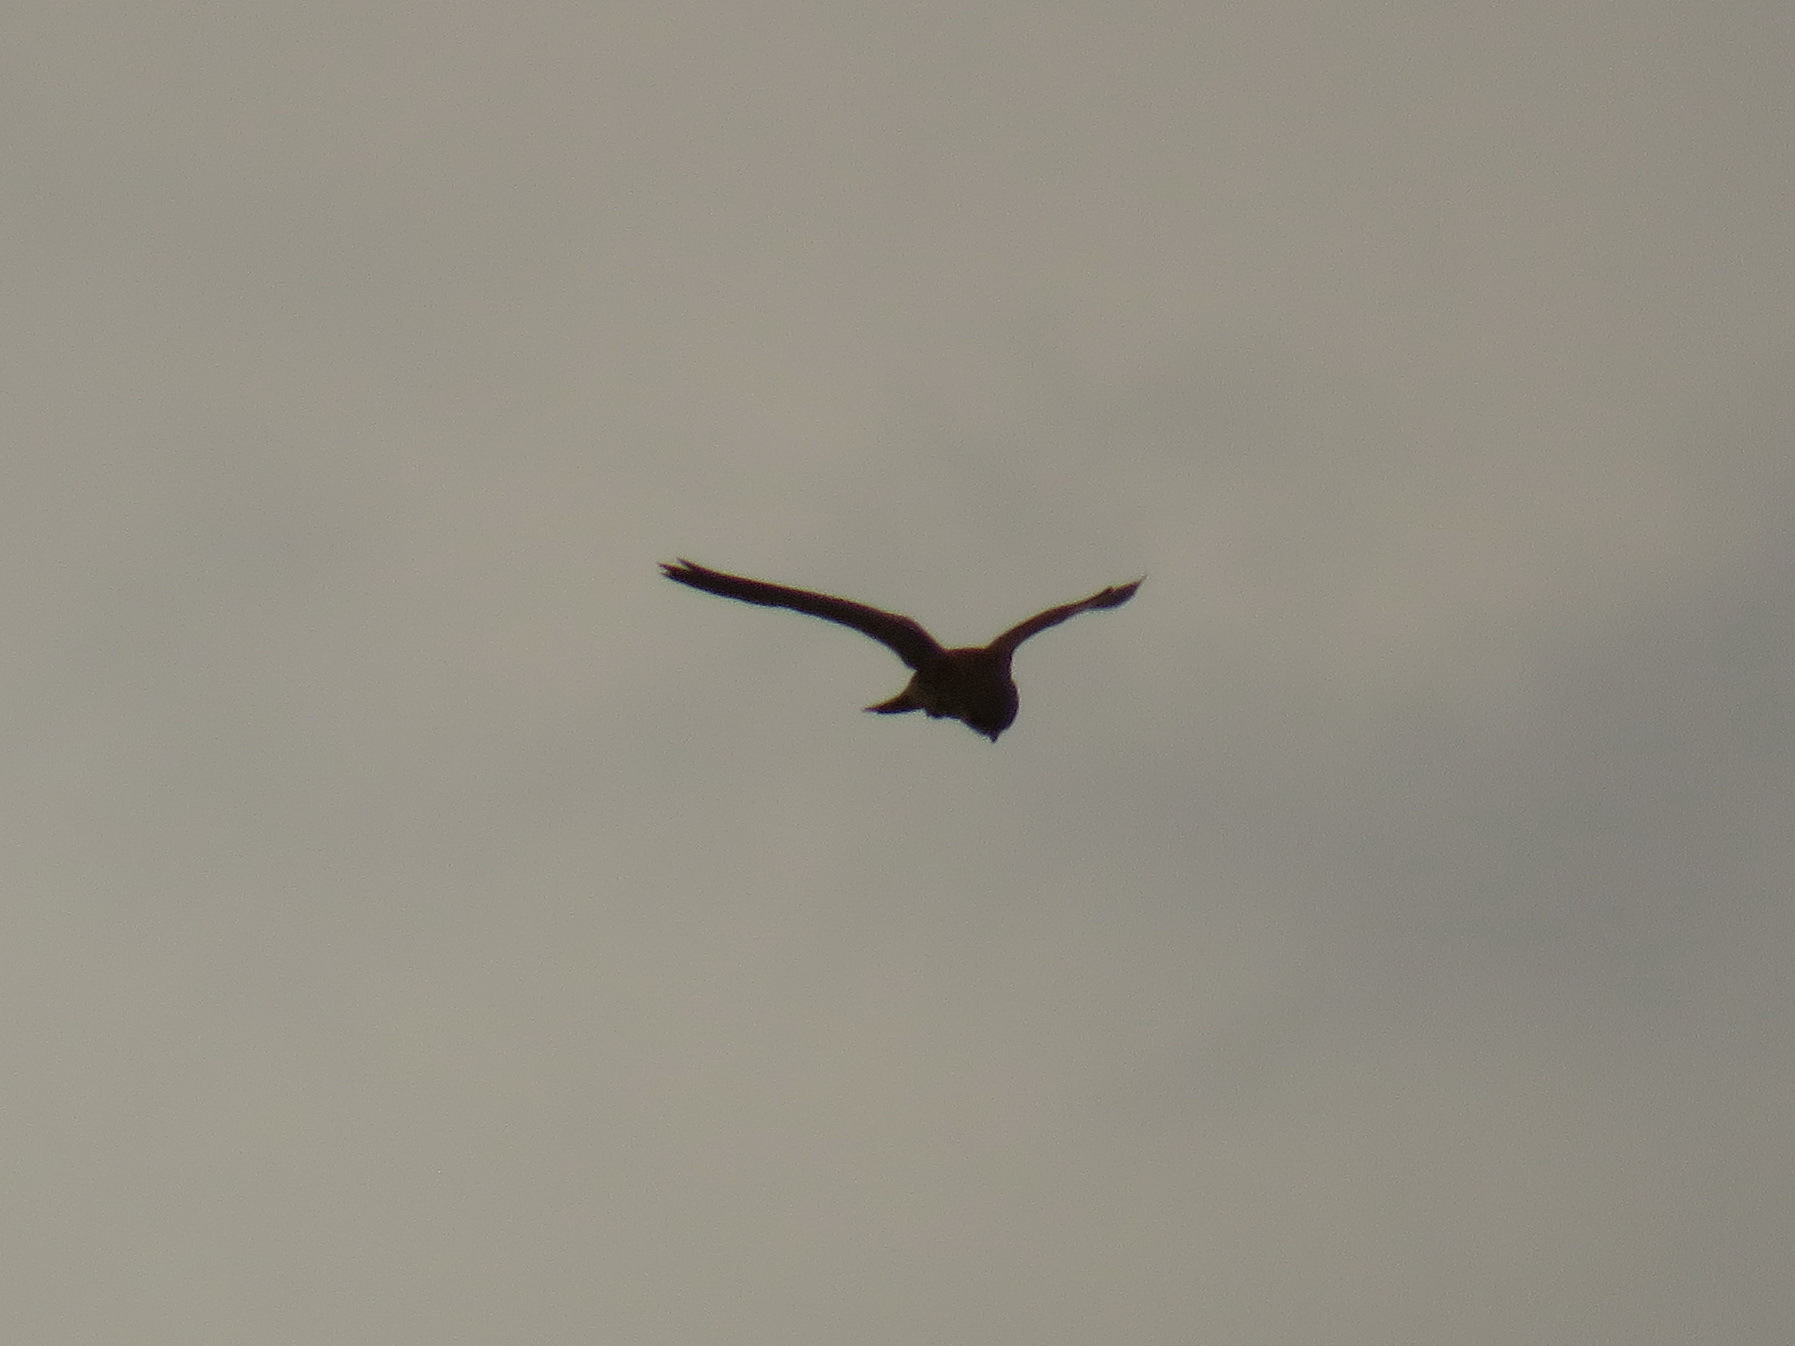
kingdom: Animalia
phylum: Chordata
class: Aves
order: Falconiformes
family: Falconidae
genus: Falco
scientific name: Falco tinnunculus
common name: Common kestrel
